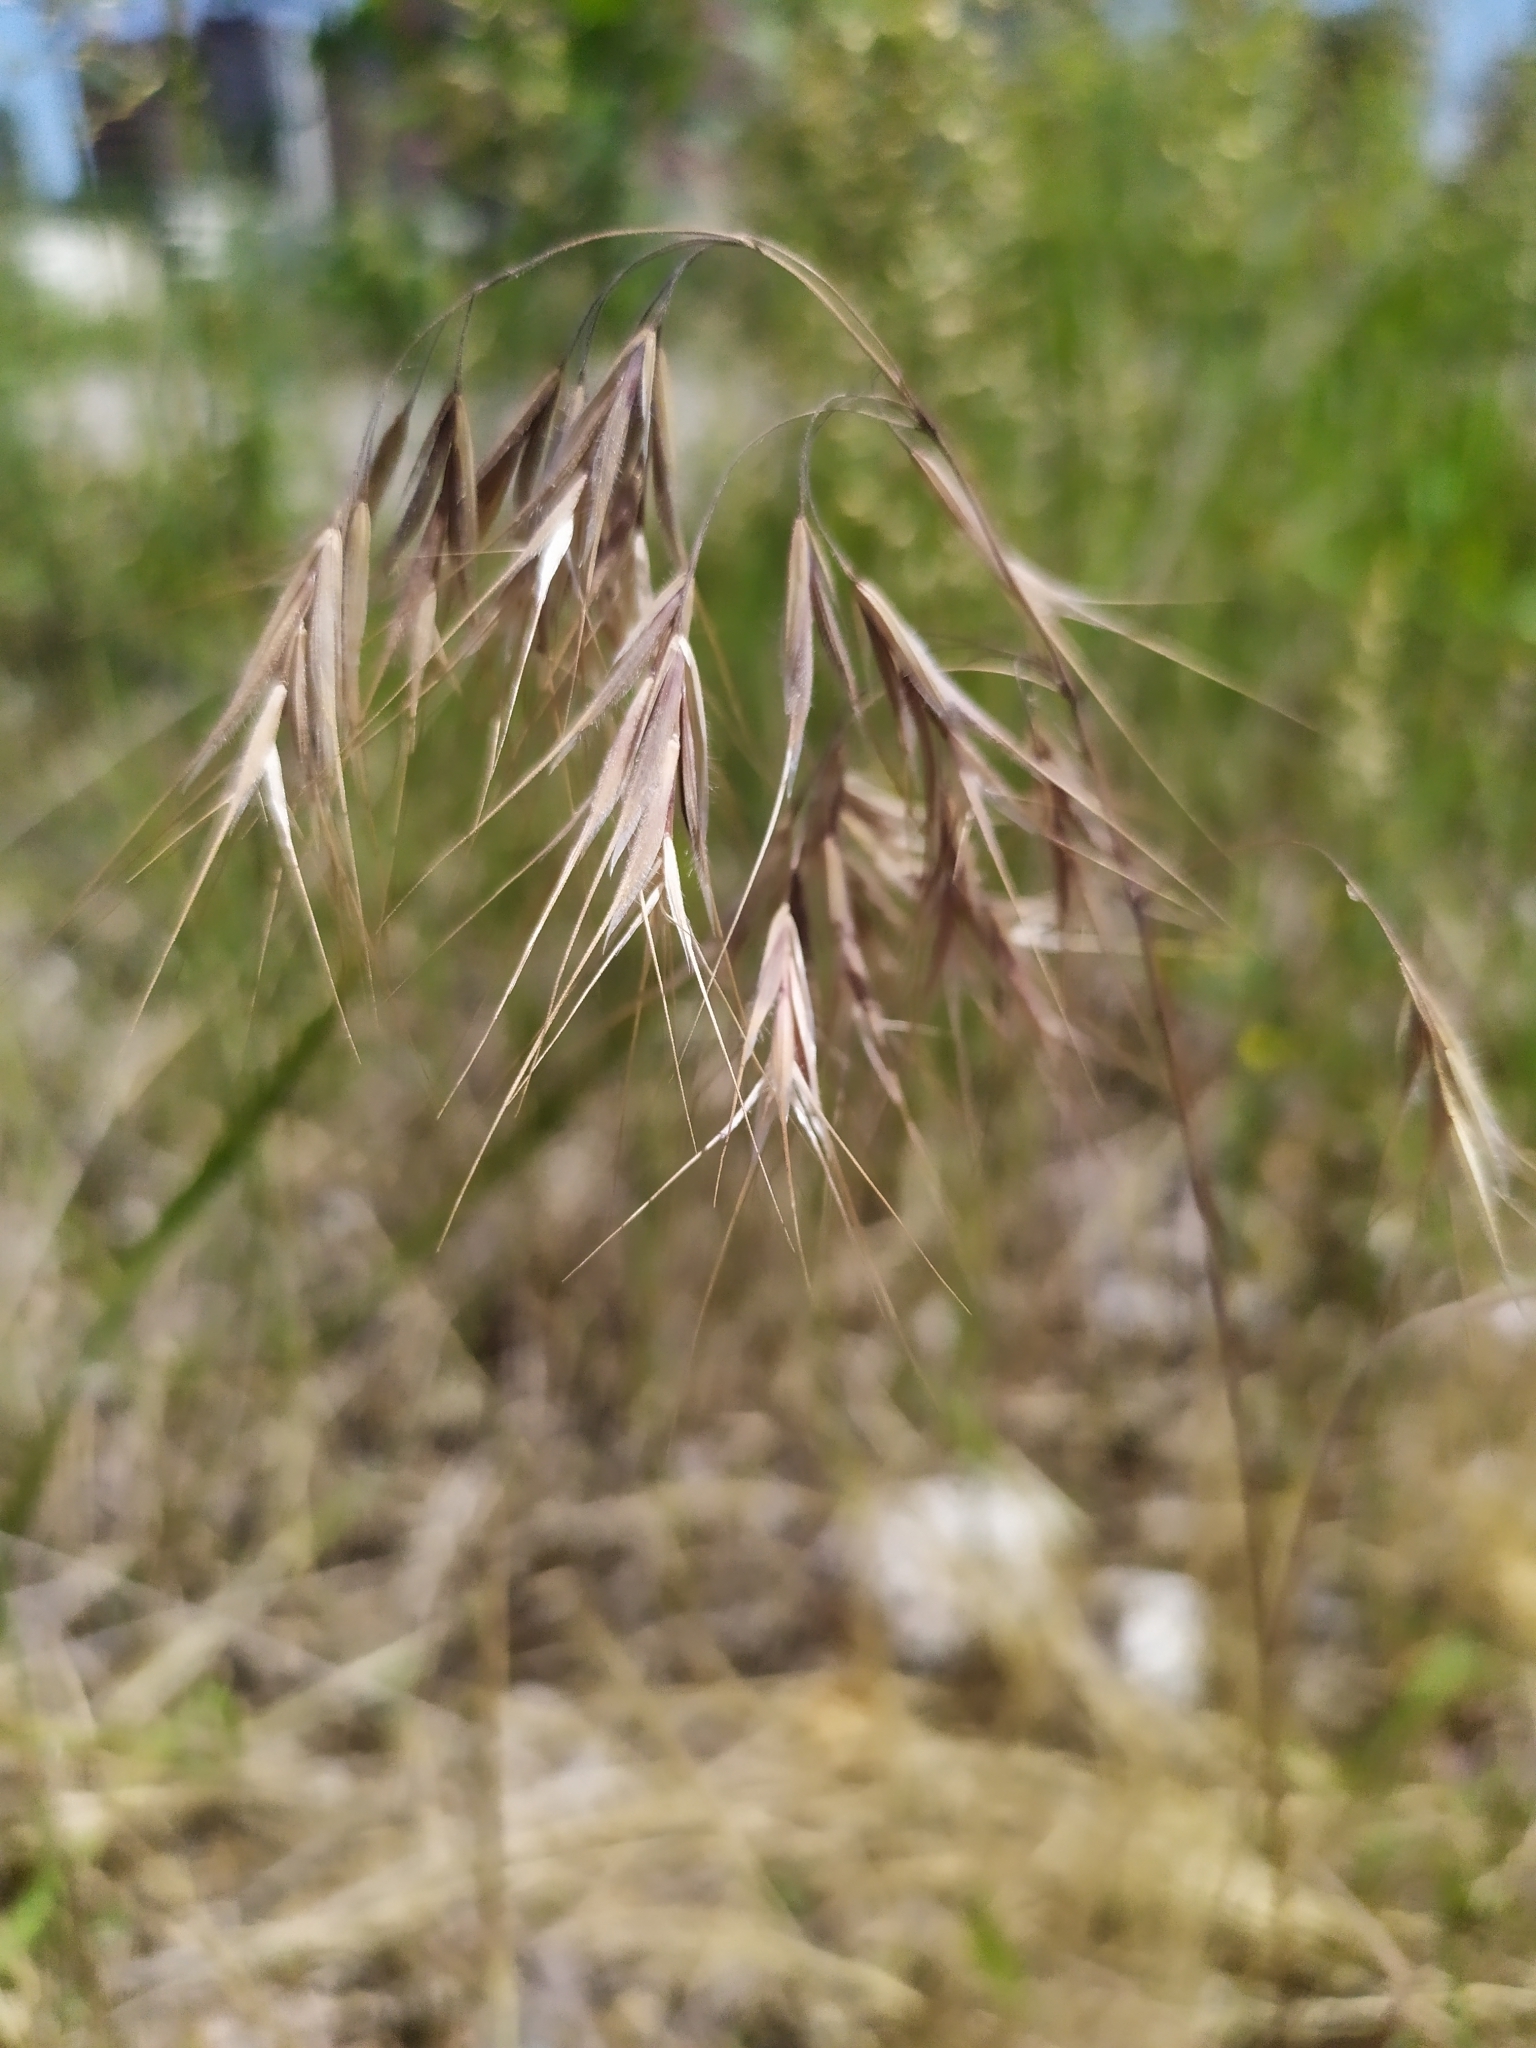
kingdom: Plantae
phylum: Tracheophyta
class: Liliopsida
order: Poales
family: Poaceae
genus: Bromus
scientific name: Bromus tectorum
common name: Cheatgrass
